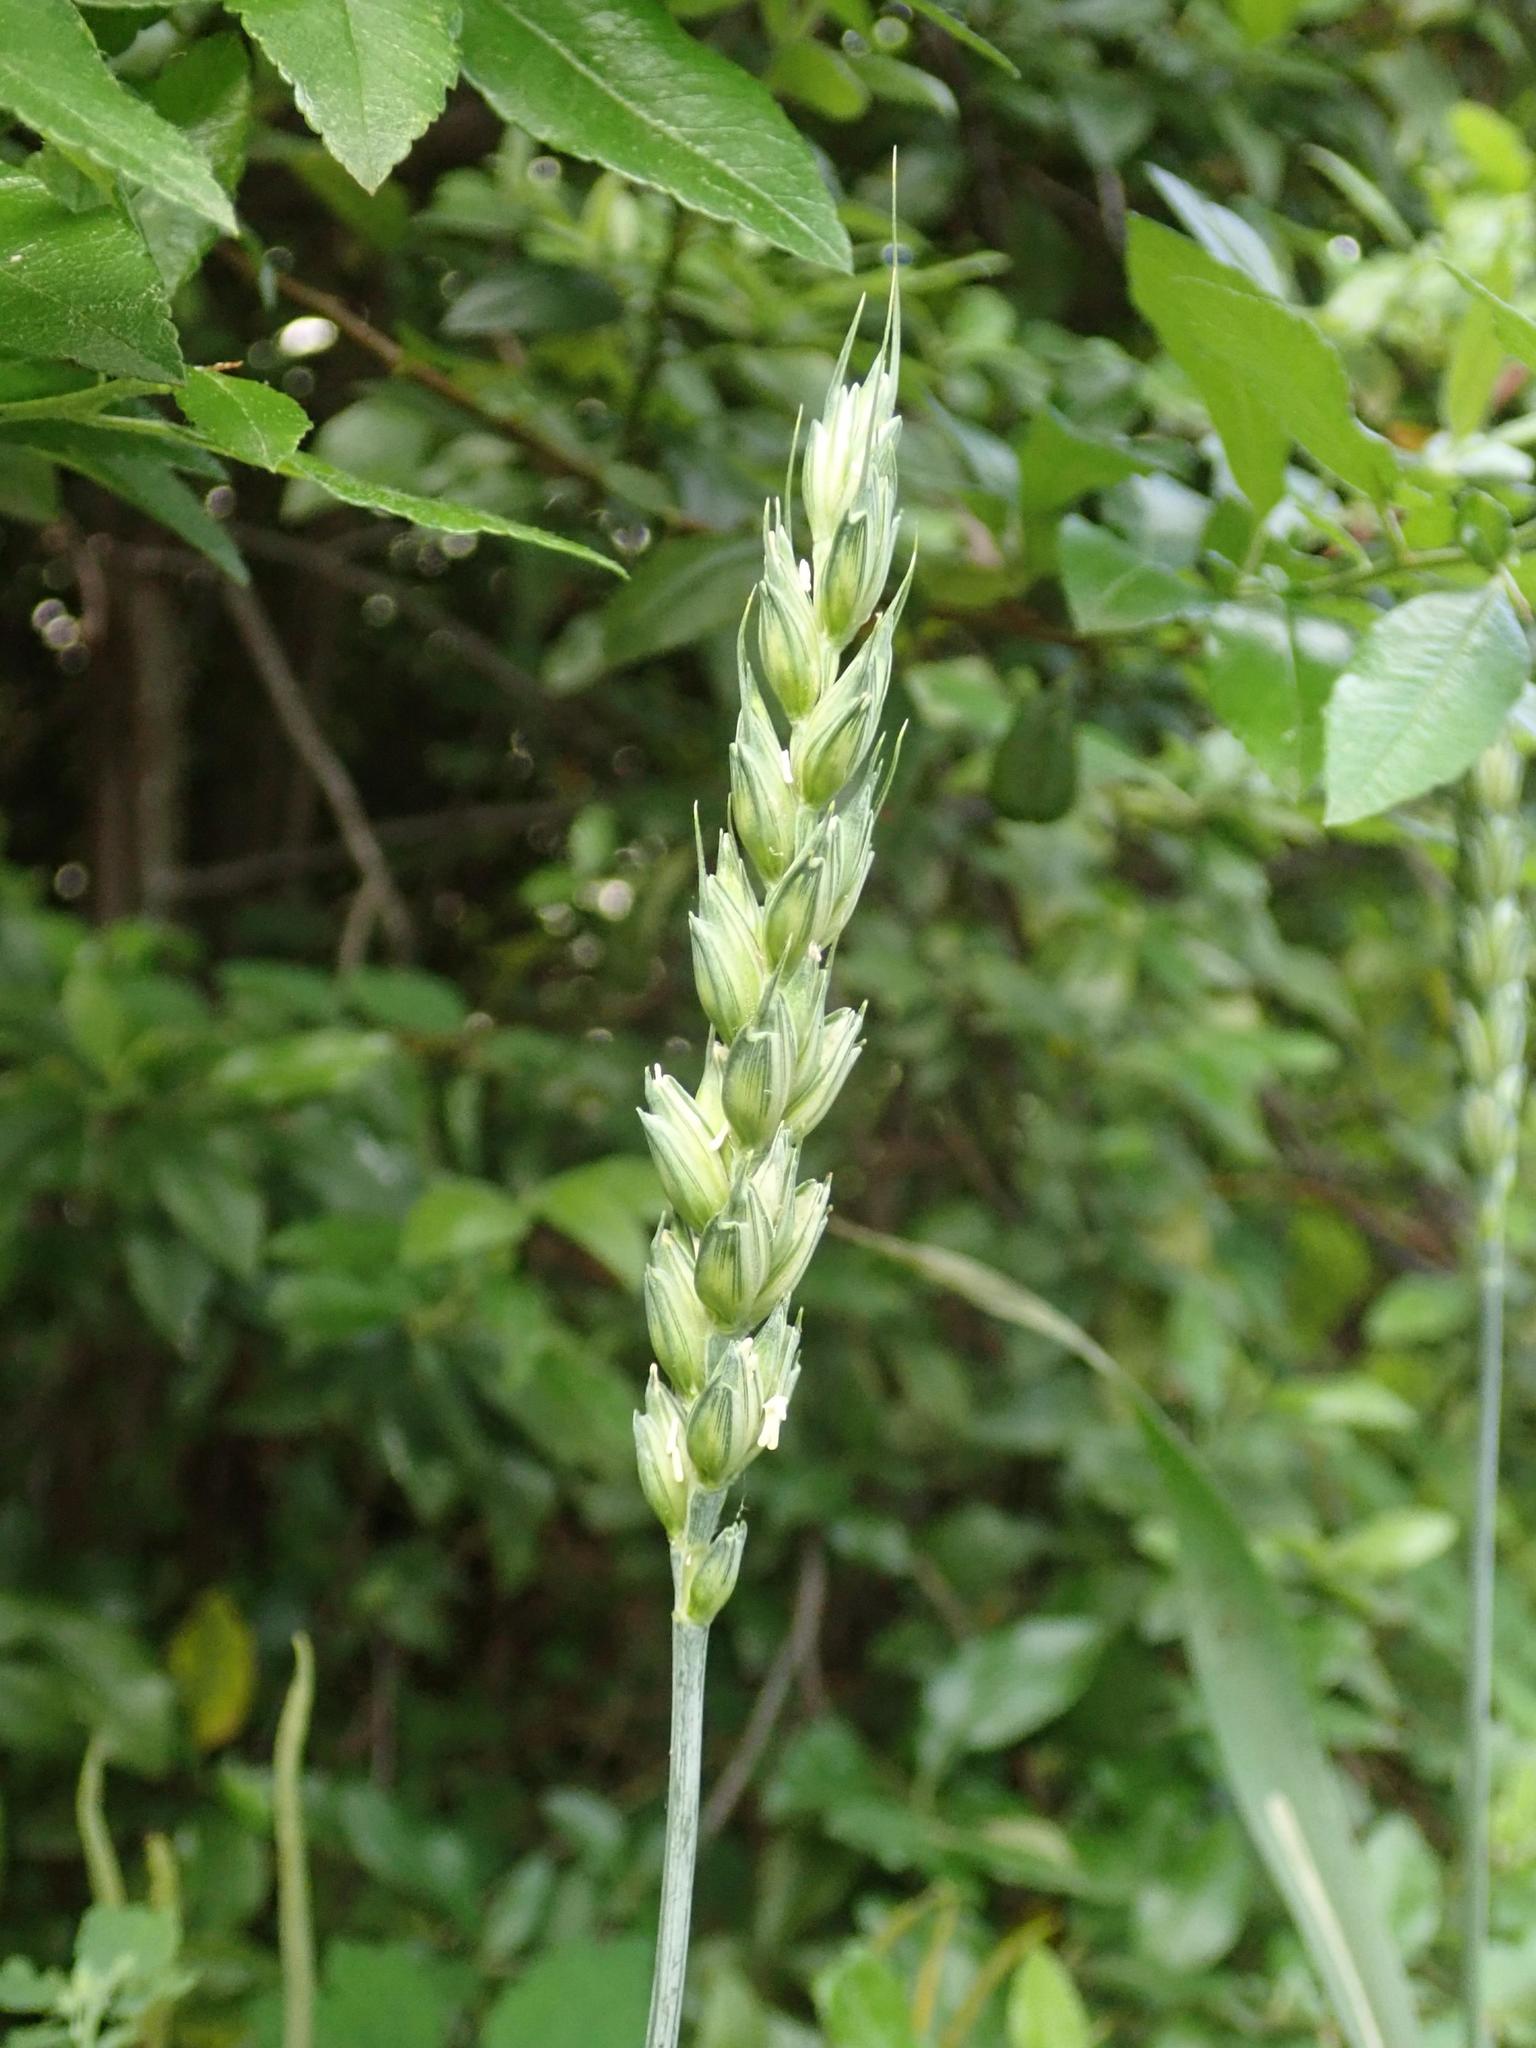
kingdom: Plantae
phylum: Tracheophyta
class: Liliopsida
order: Poales
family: Poaceae
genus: Triticum
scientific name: Triticum aestivum
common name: Common wheat
